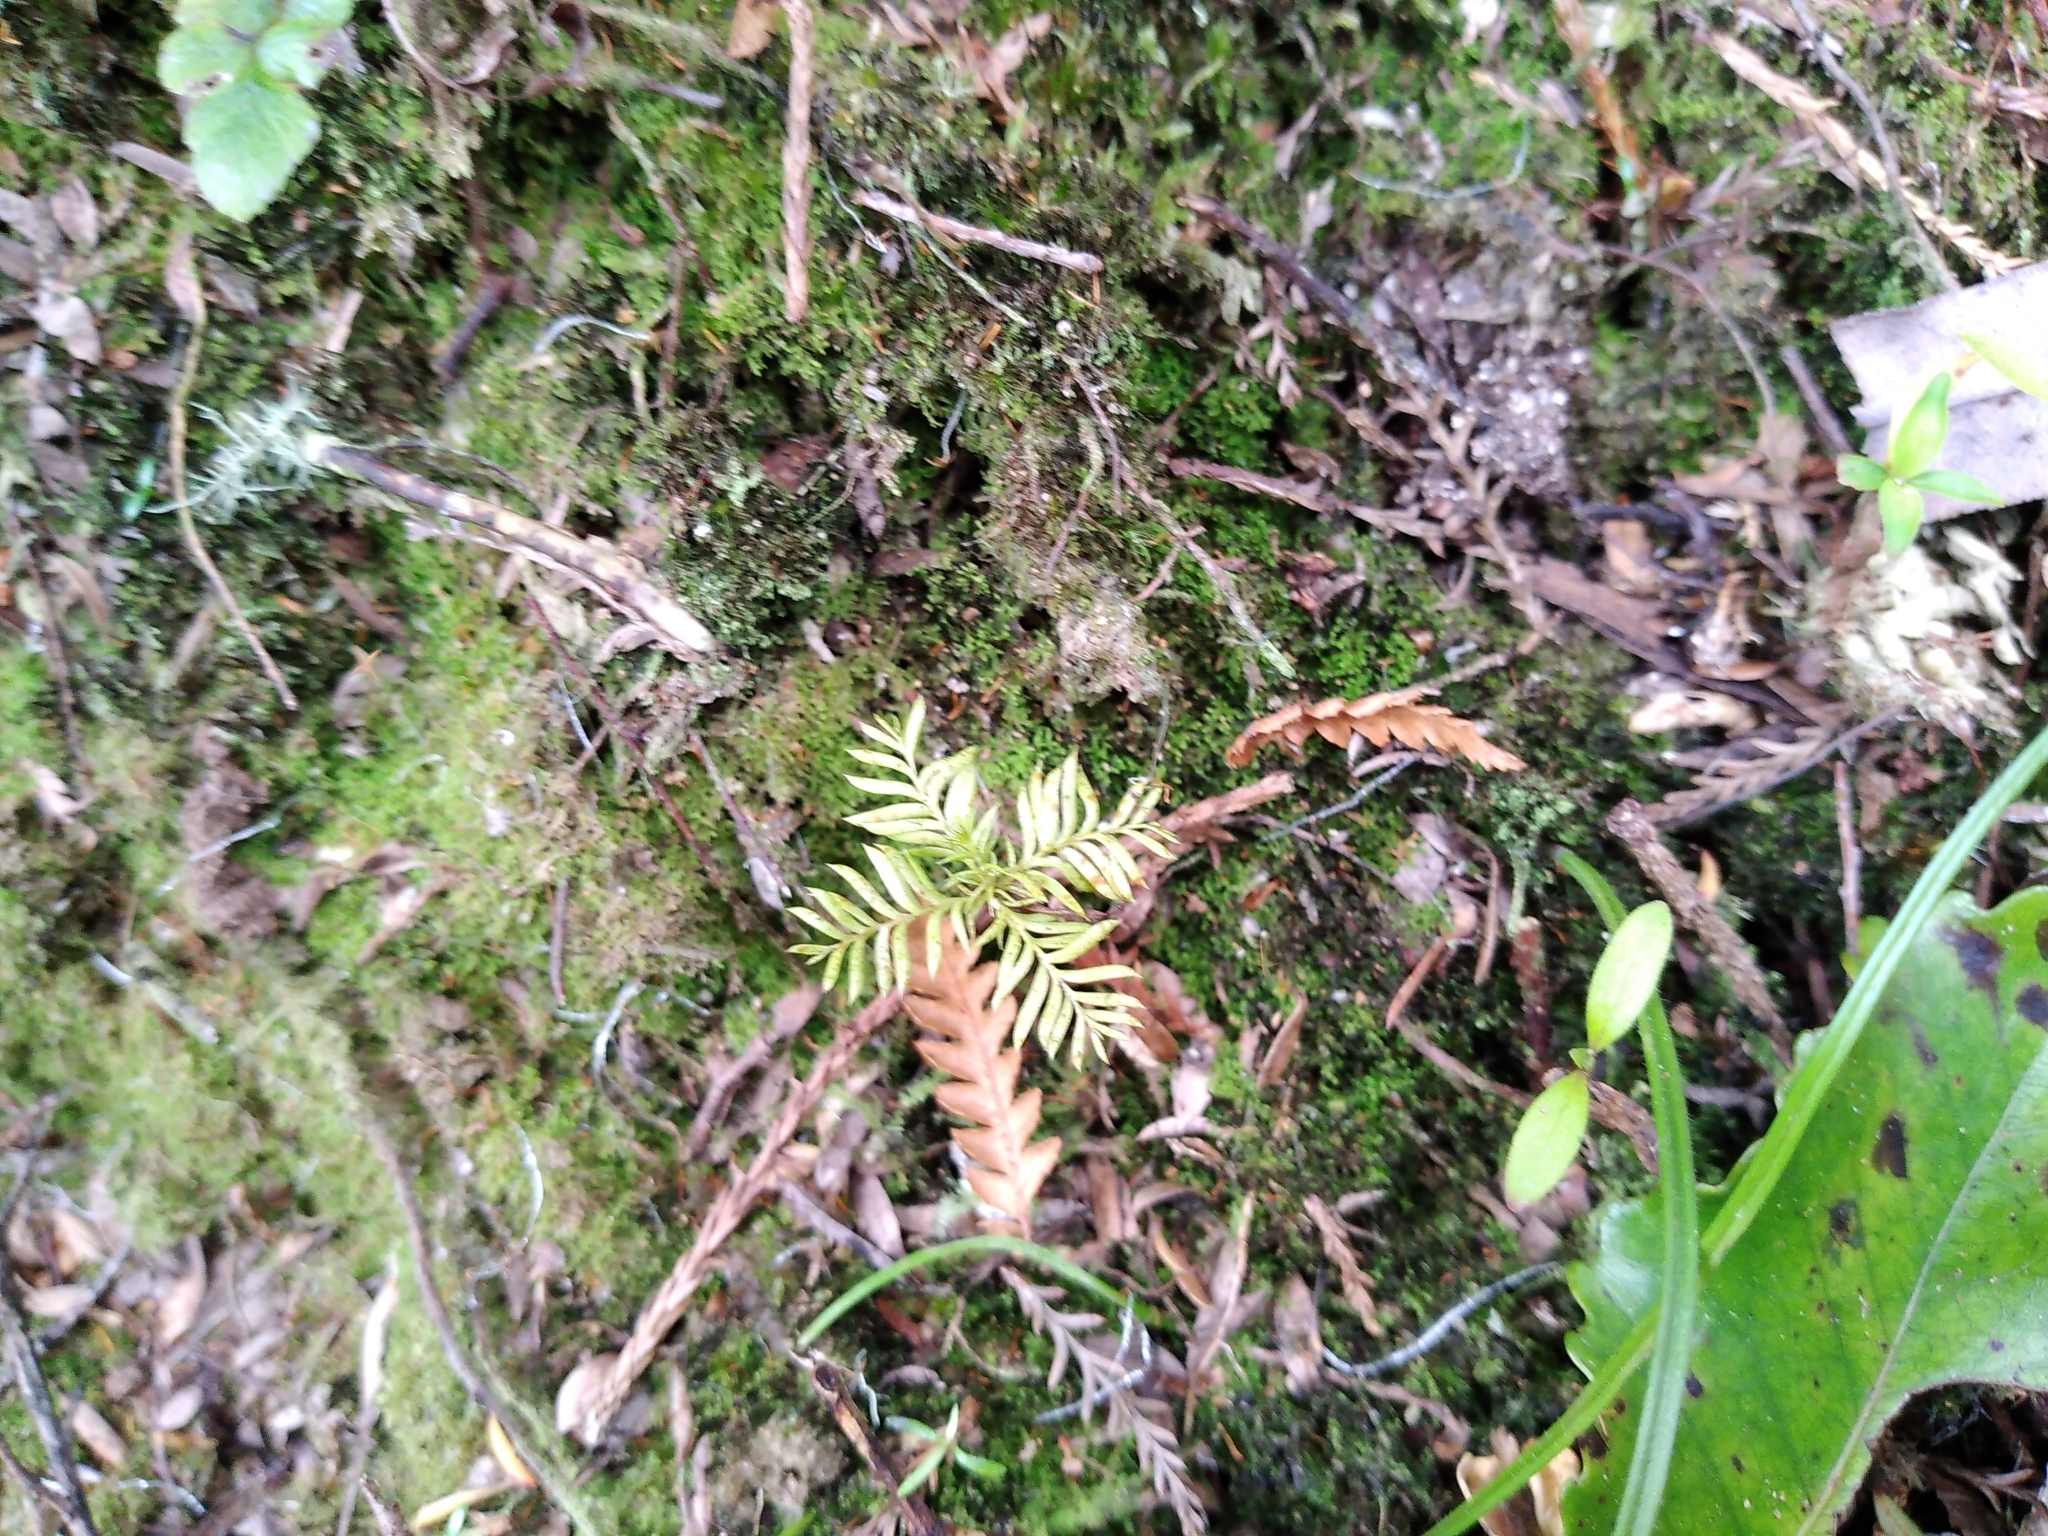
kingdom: Plantae
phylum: Tracheophyta
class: Pinopsida
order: Pinales
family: Podocarpaceae
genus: Dacrycarpus
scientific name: Dacrycarpus dacrydioides
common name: White pine
